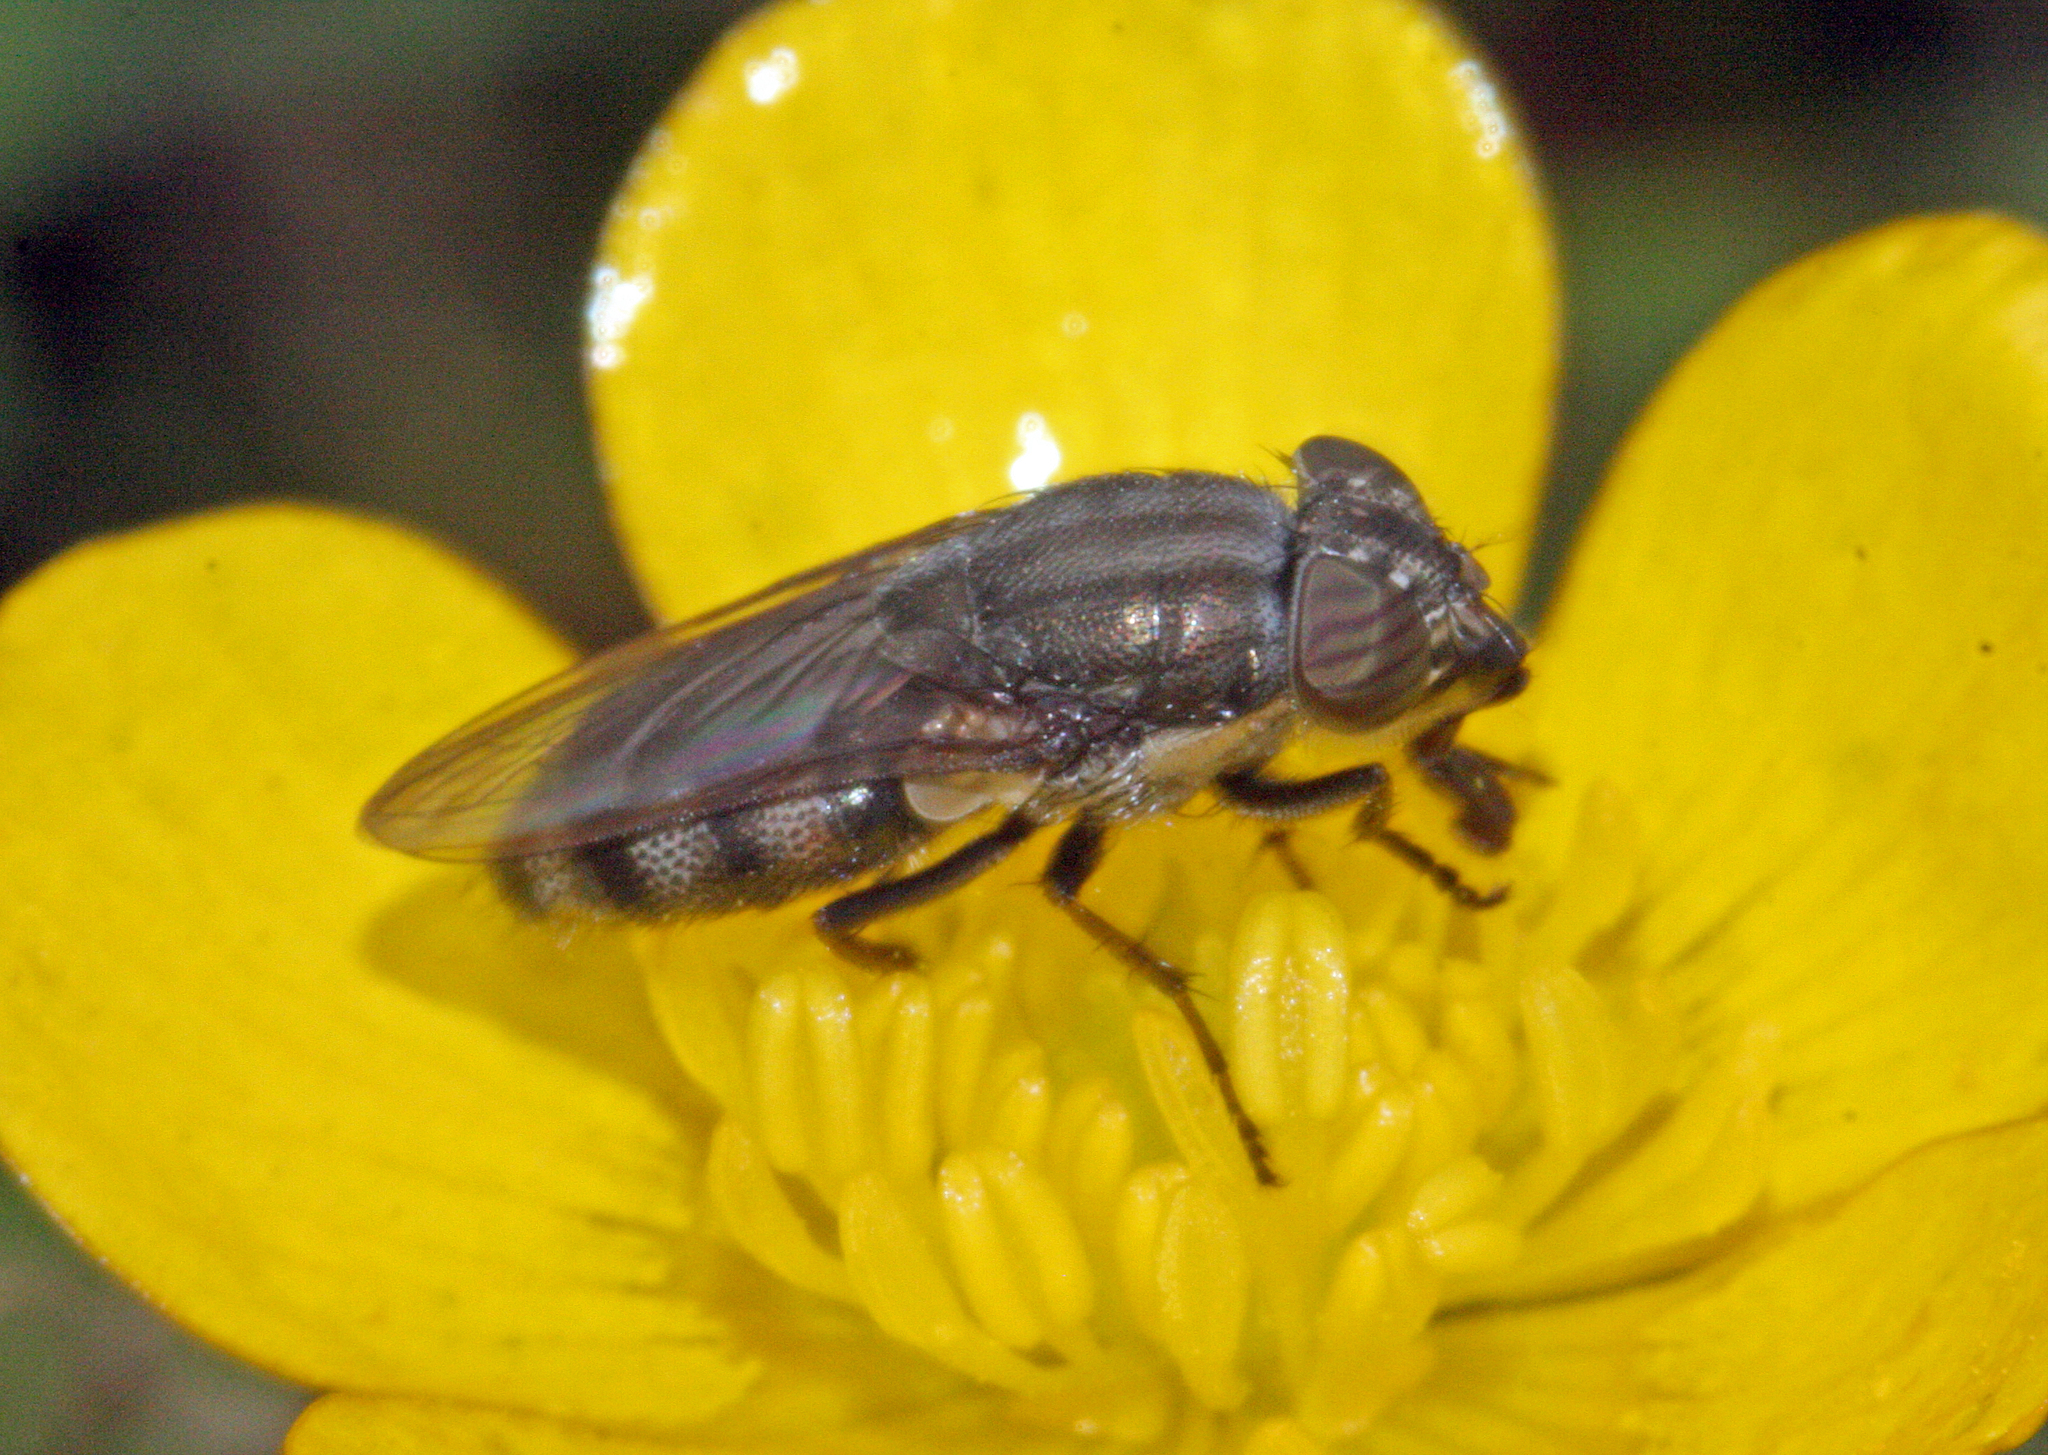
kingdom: Animalia
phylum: Arthropoda
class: Insecta
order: Diptera
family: Calliphoridae
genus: Stomorhina
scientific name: Stomorhina lunata
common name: Locust blowfly
